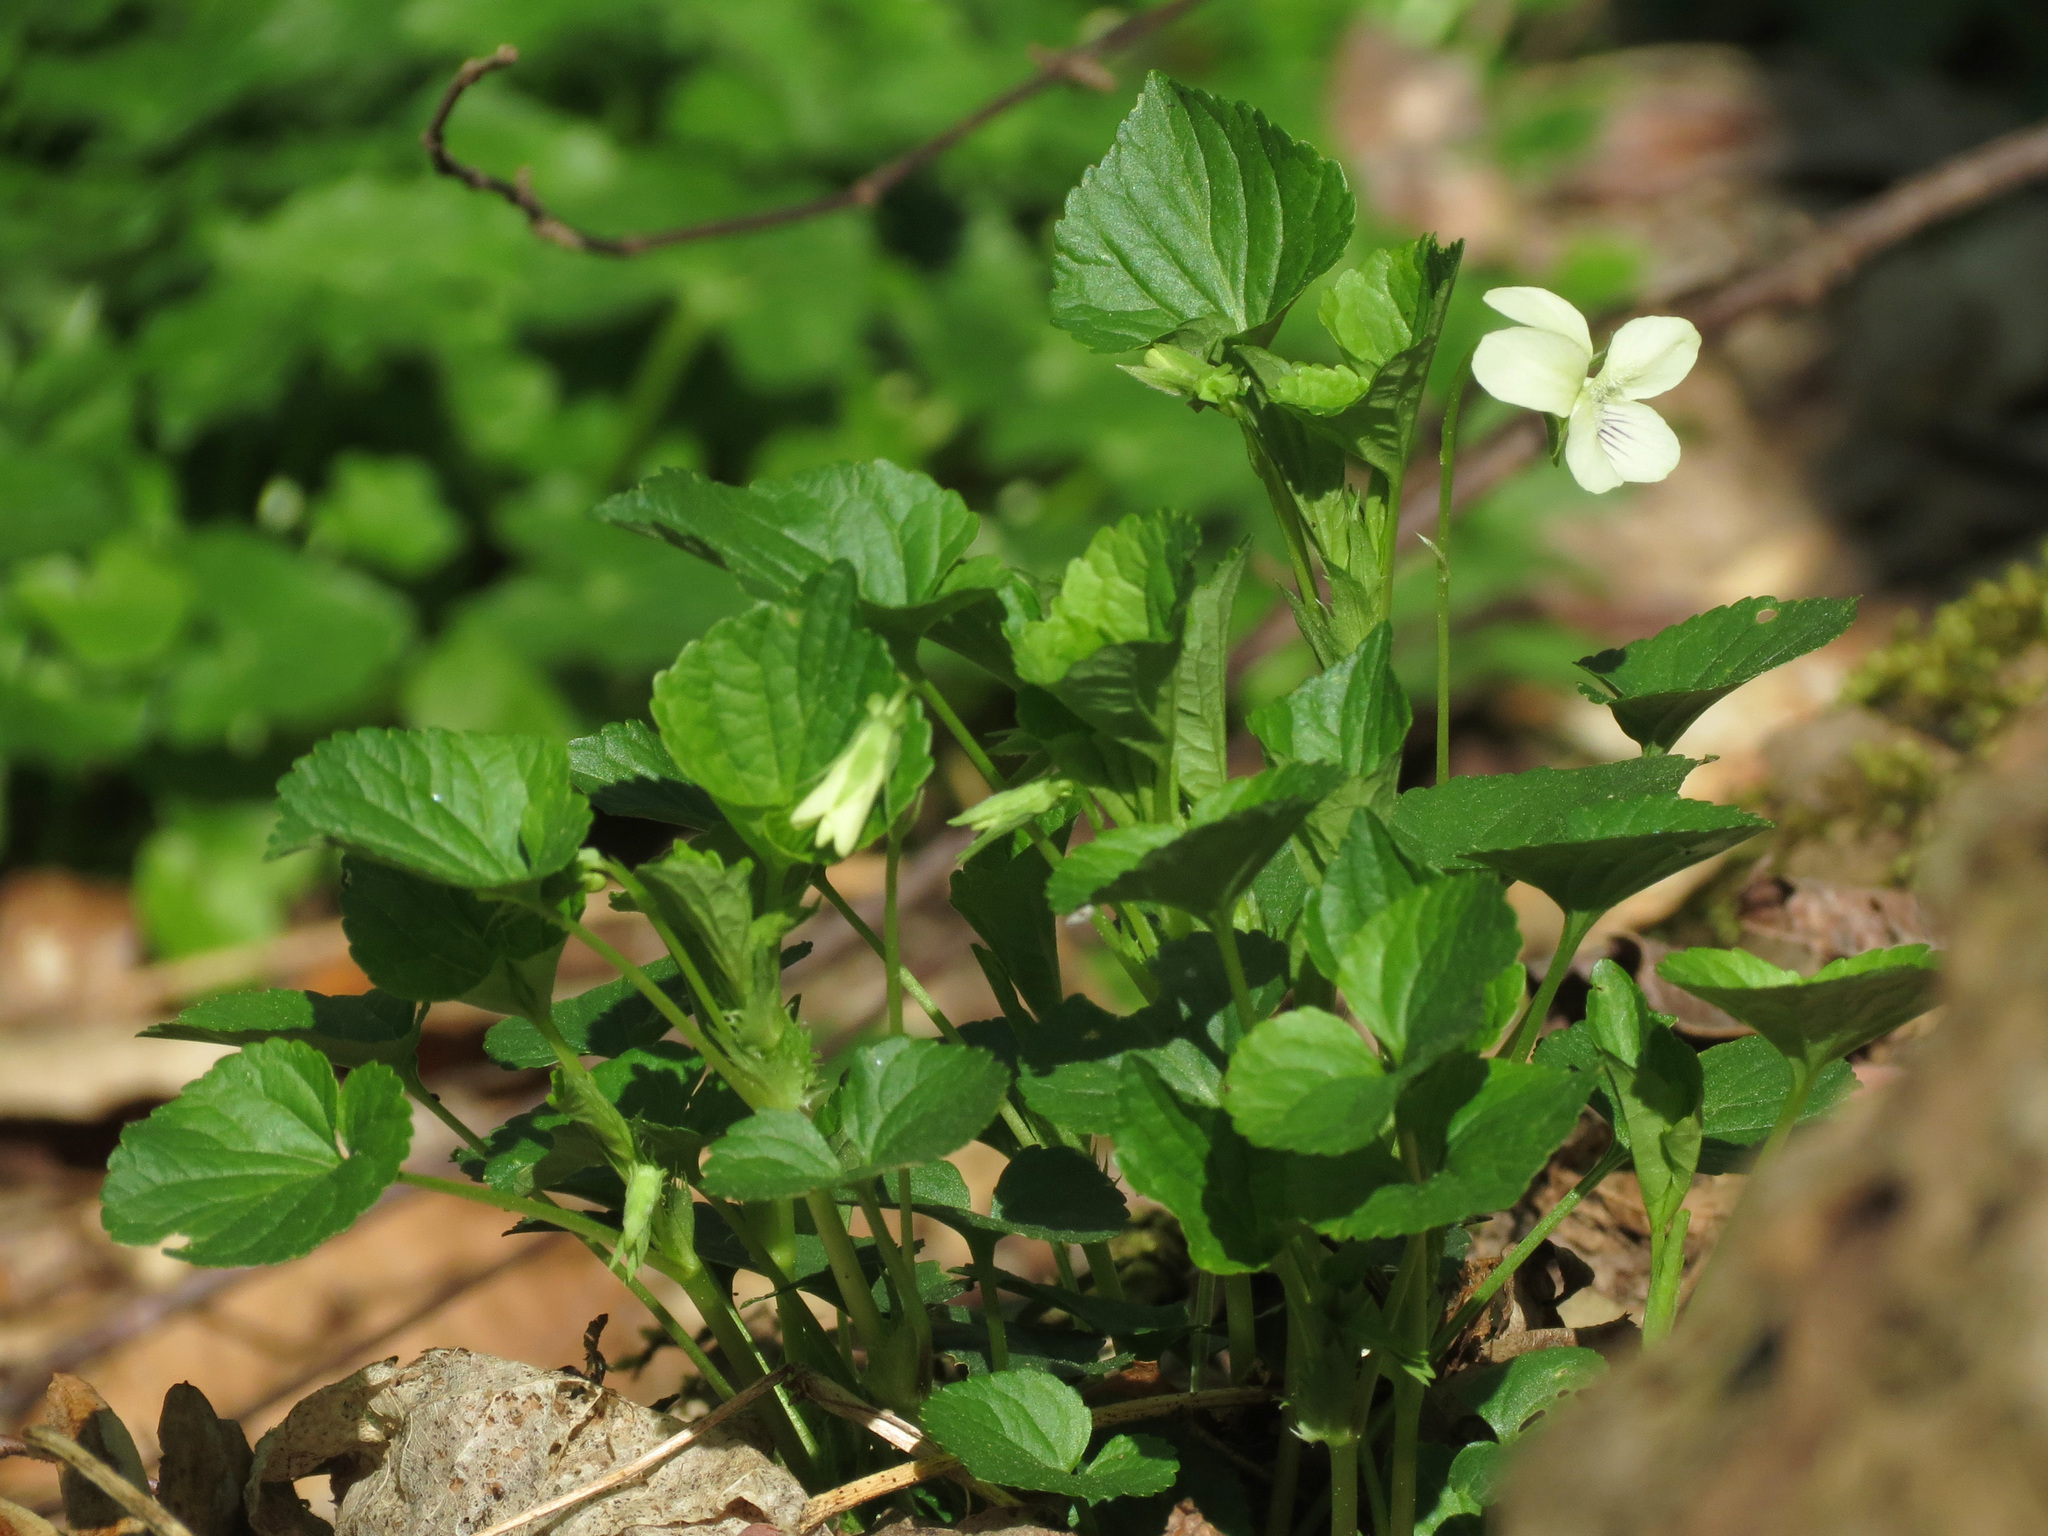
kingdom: Plantae
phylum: Tracheophyta
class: Magnoliopsida
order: Malpighiales
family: Violaceae
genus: Viola
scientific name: Viola striata
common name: Cream violet
